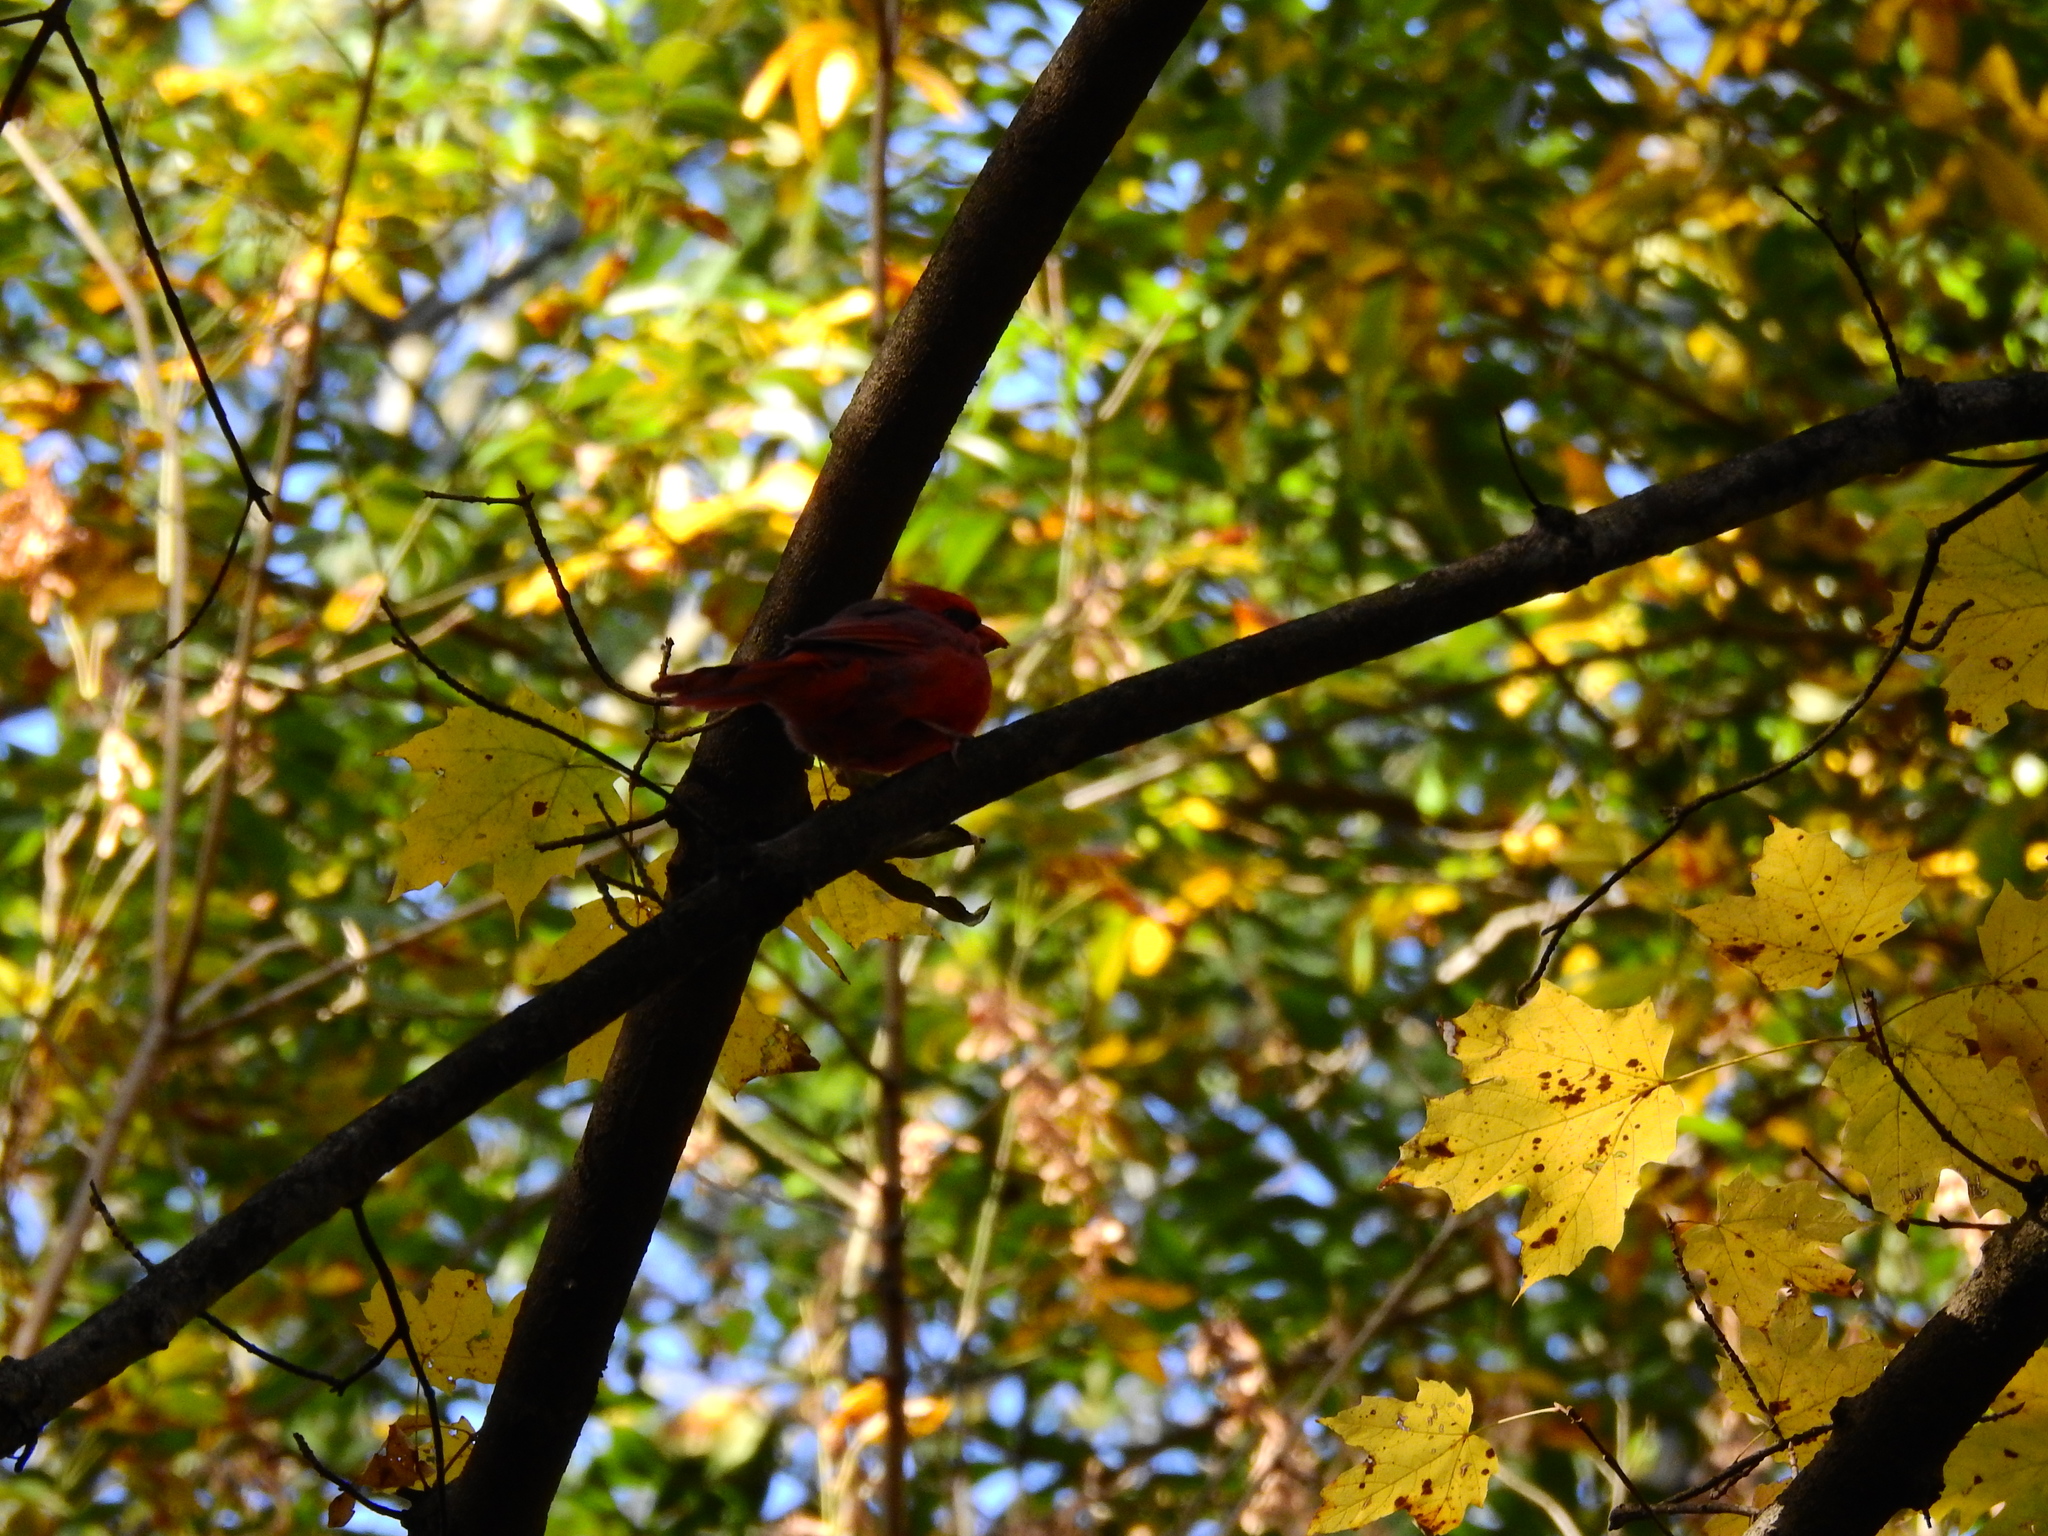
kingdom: Animalia
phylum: Chordata
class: Aves
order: Passeriformes
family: Cardinalidae
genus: Cardinalis
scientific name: Cardinalis cardinalis
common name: Northern cardinal
